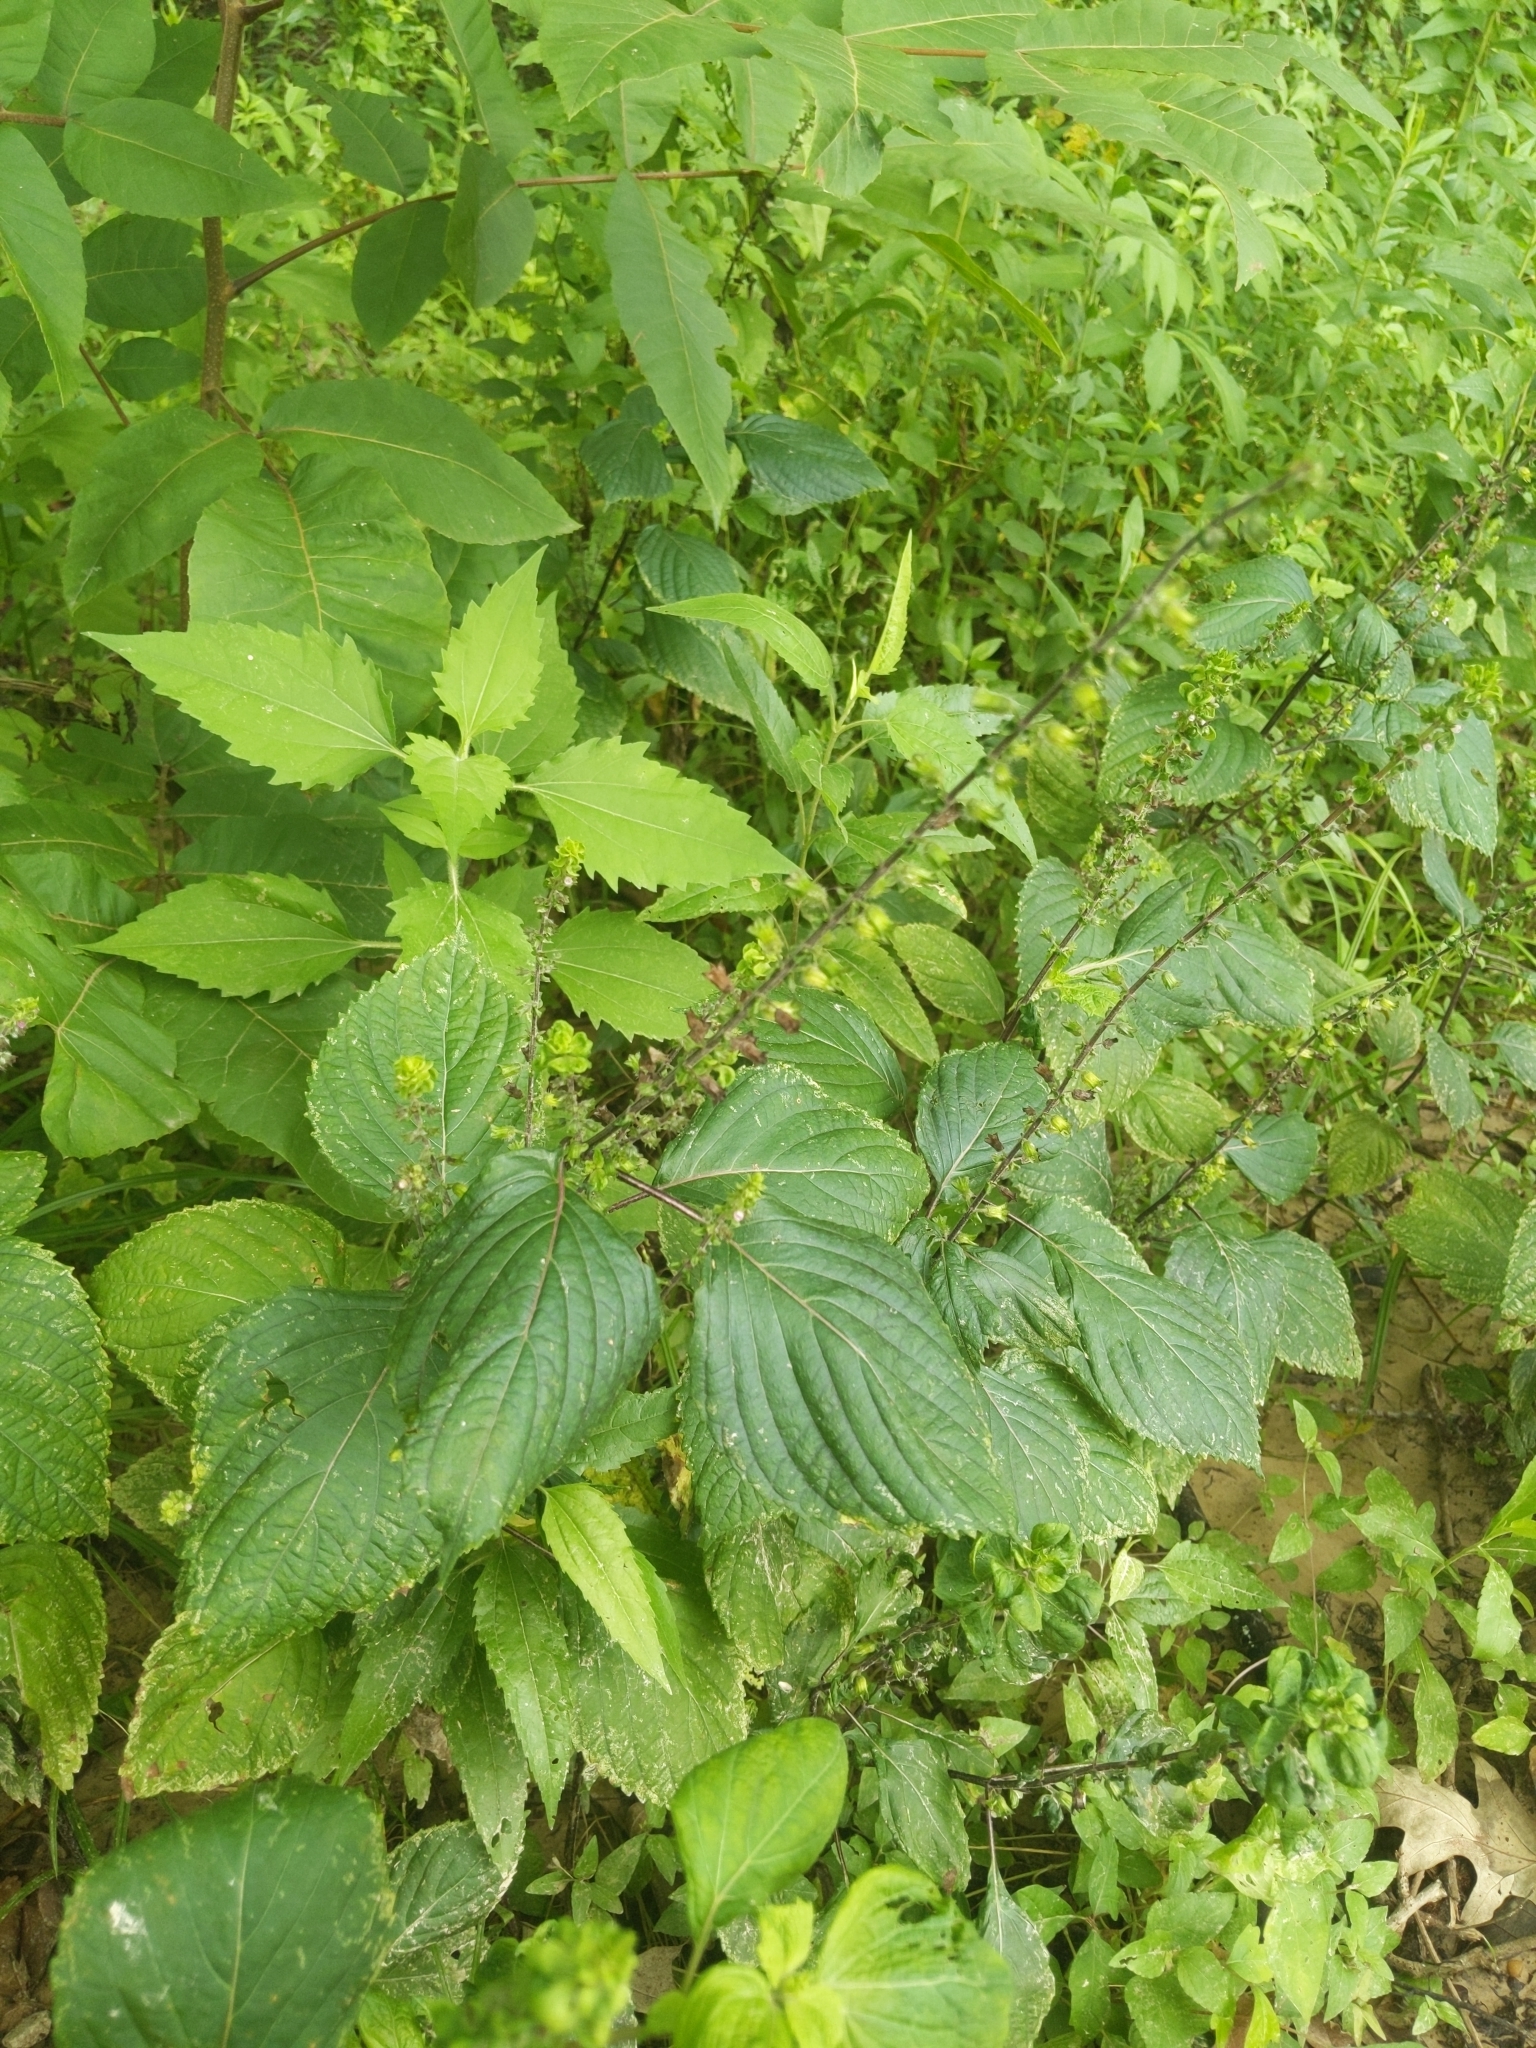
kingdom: Plantae
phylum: Tracheophyta
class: Magnoliopsida
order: Lamiales
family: Lamiaceae
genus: Perilla
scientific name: Perilla frutescens
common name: Perilla
